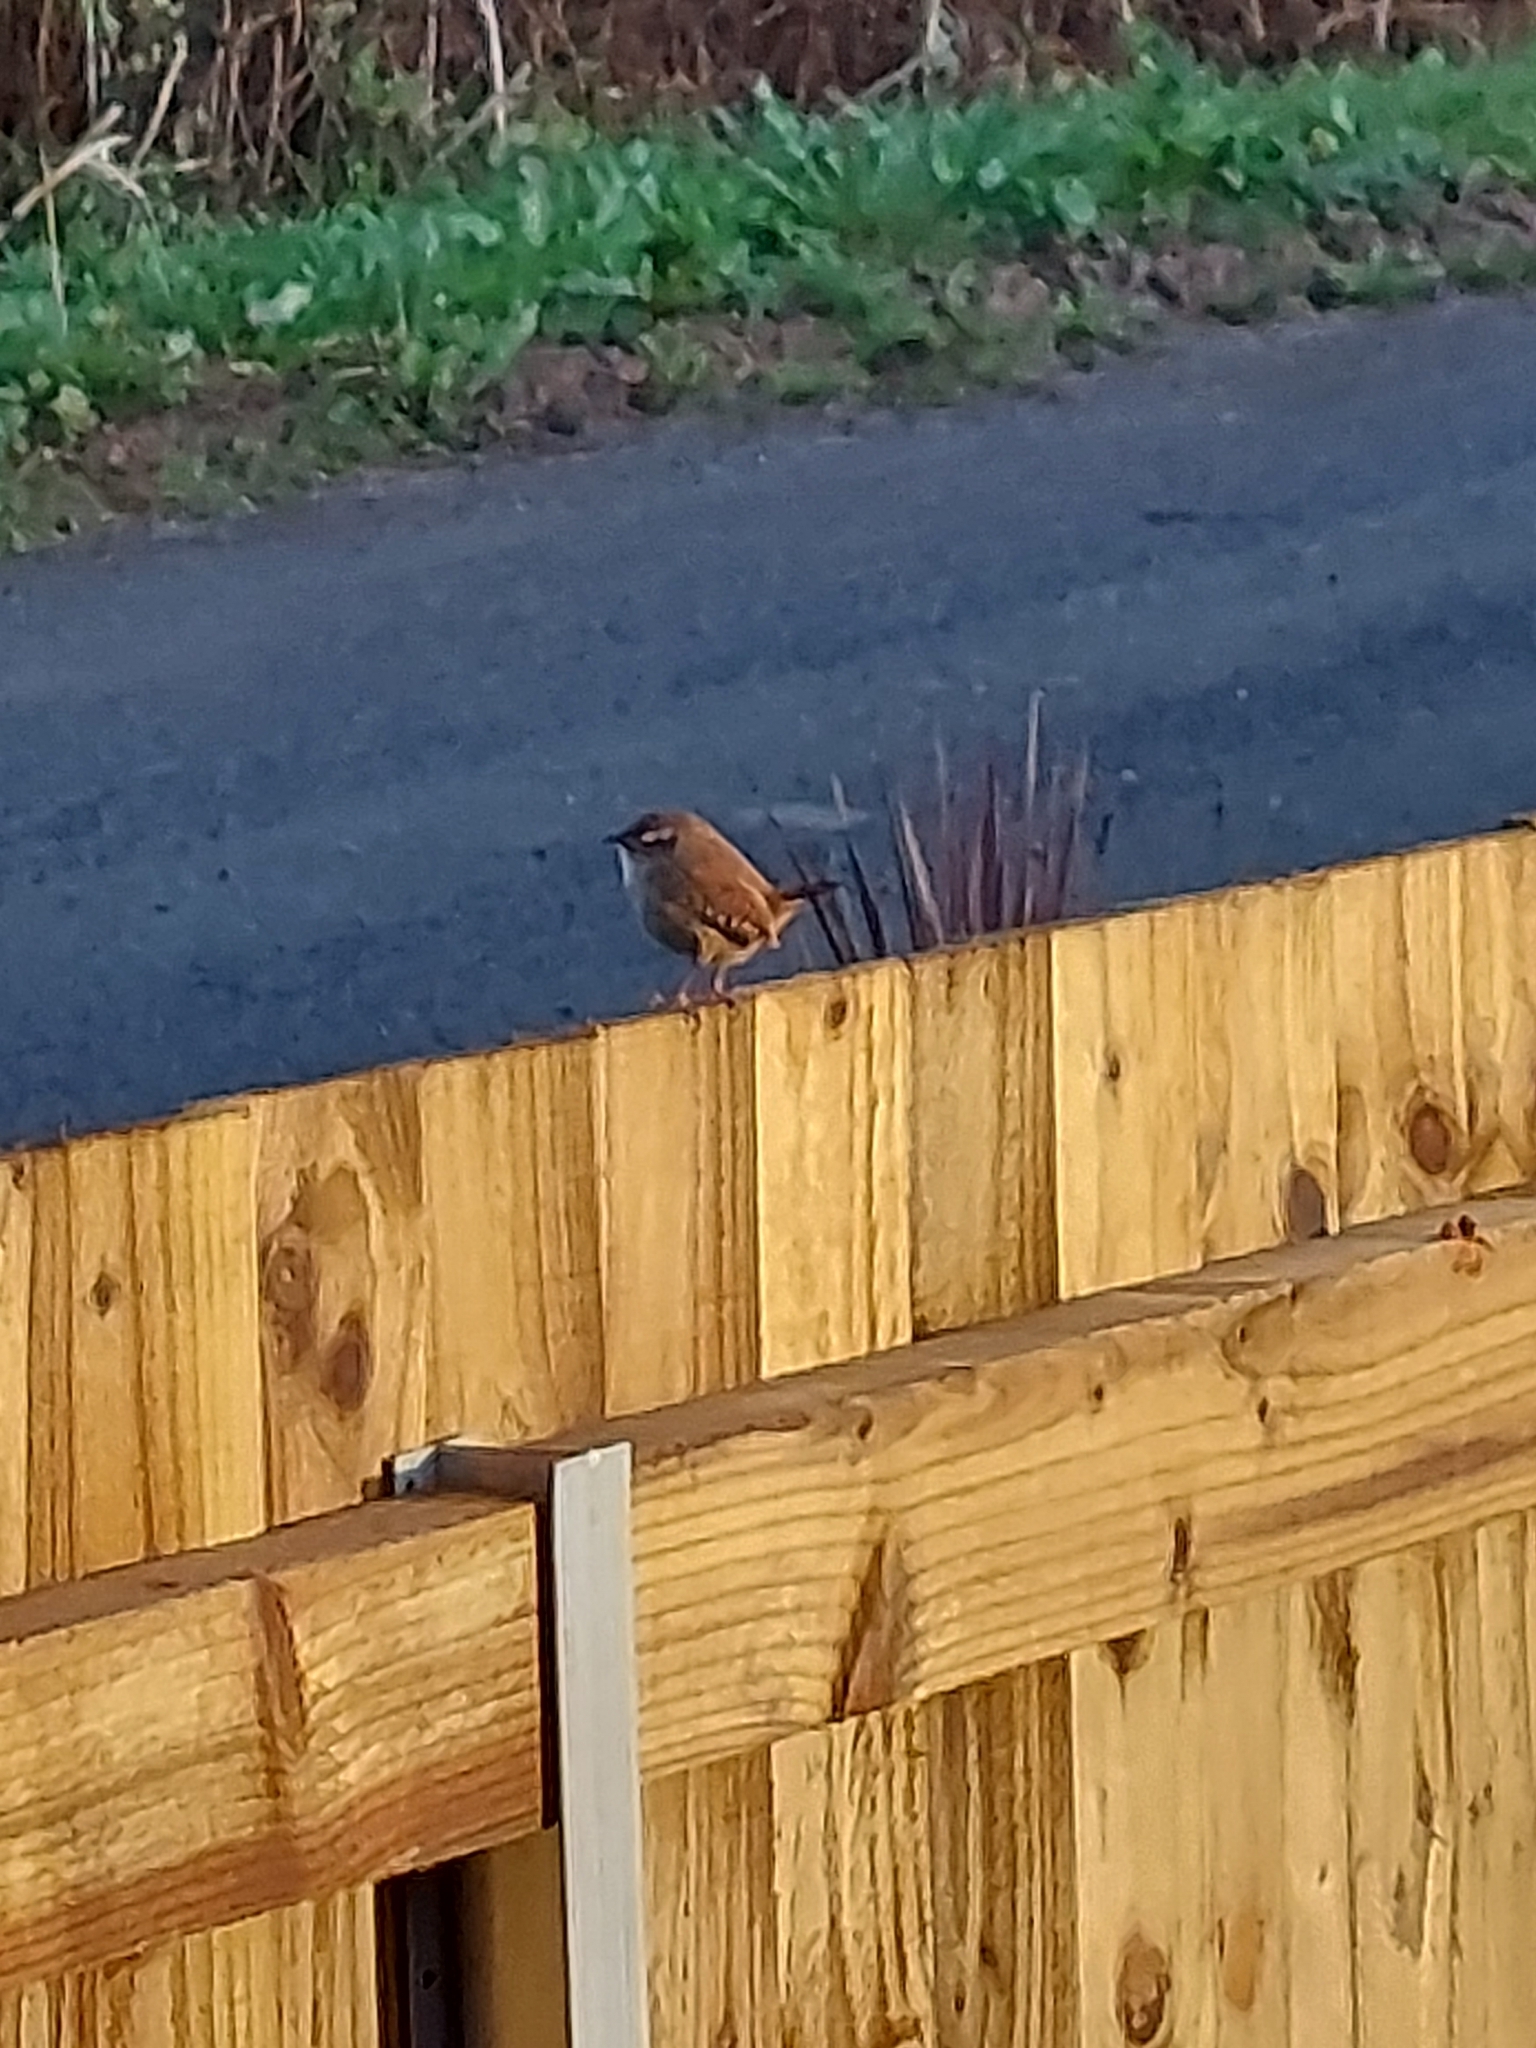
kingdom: Animalia
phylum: Chordata
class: Aves
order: Passeriformes
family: Troglodytidae
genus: Troglodytes
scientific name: Troglodytes troglodytes
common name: Eurasian wren
